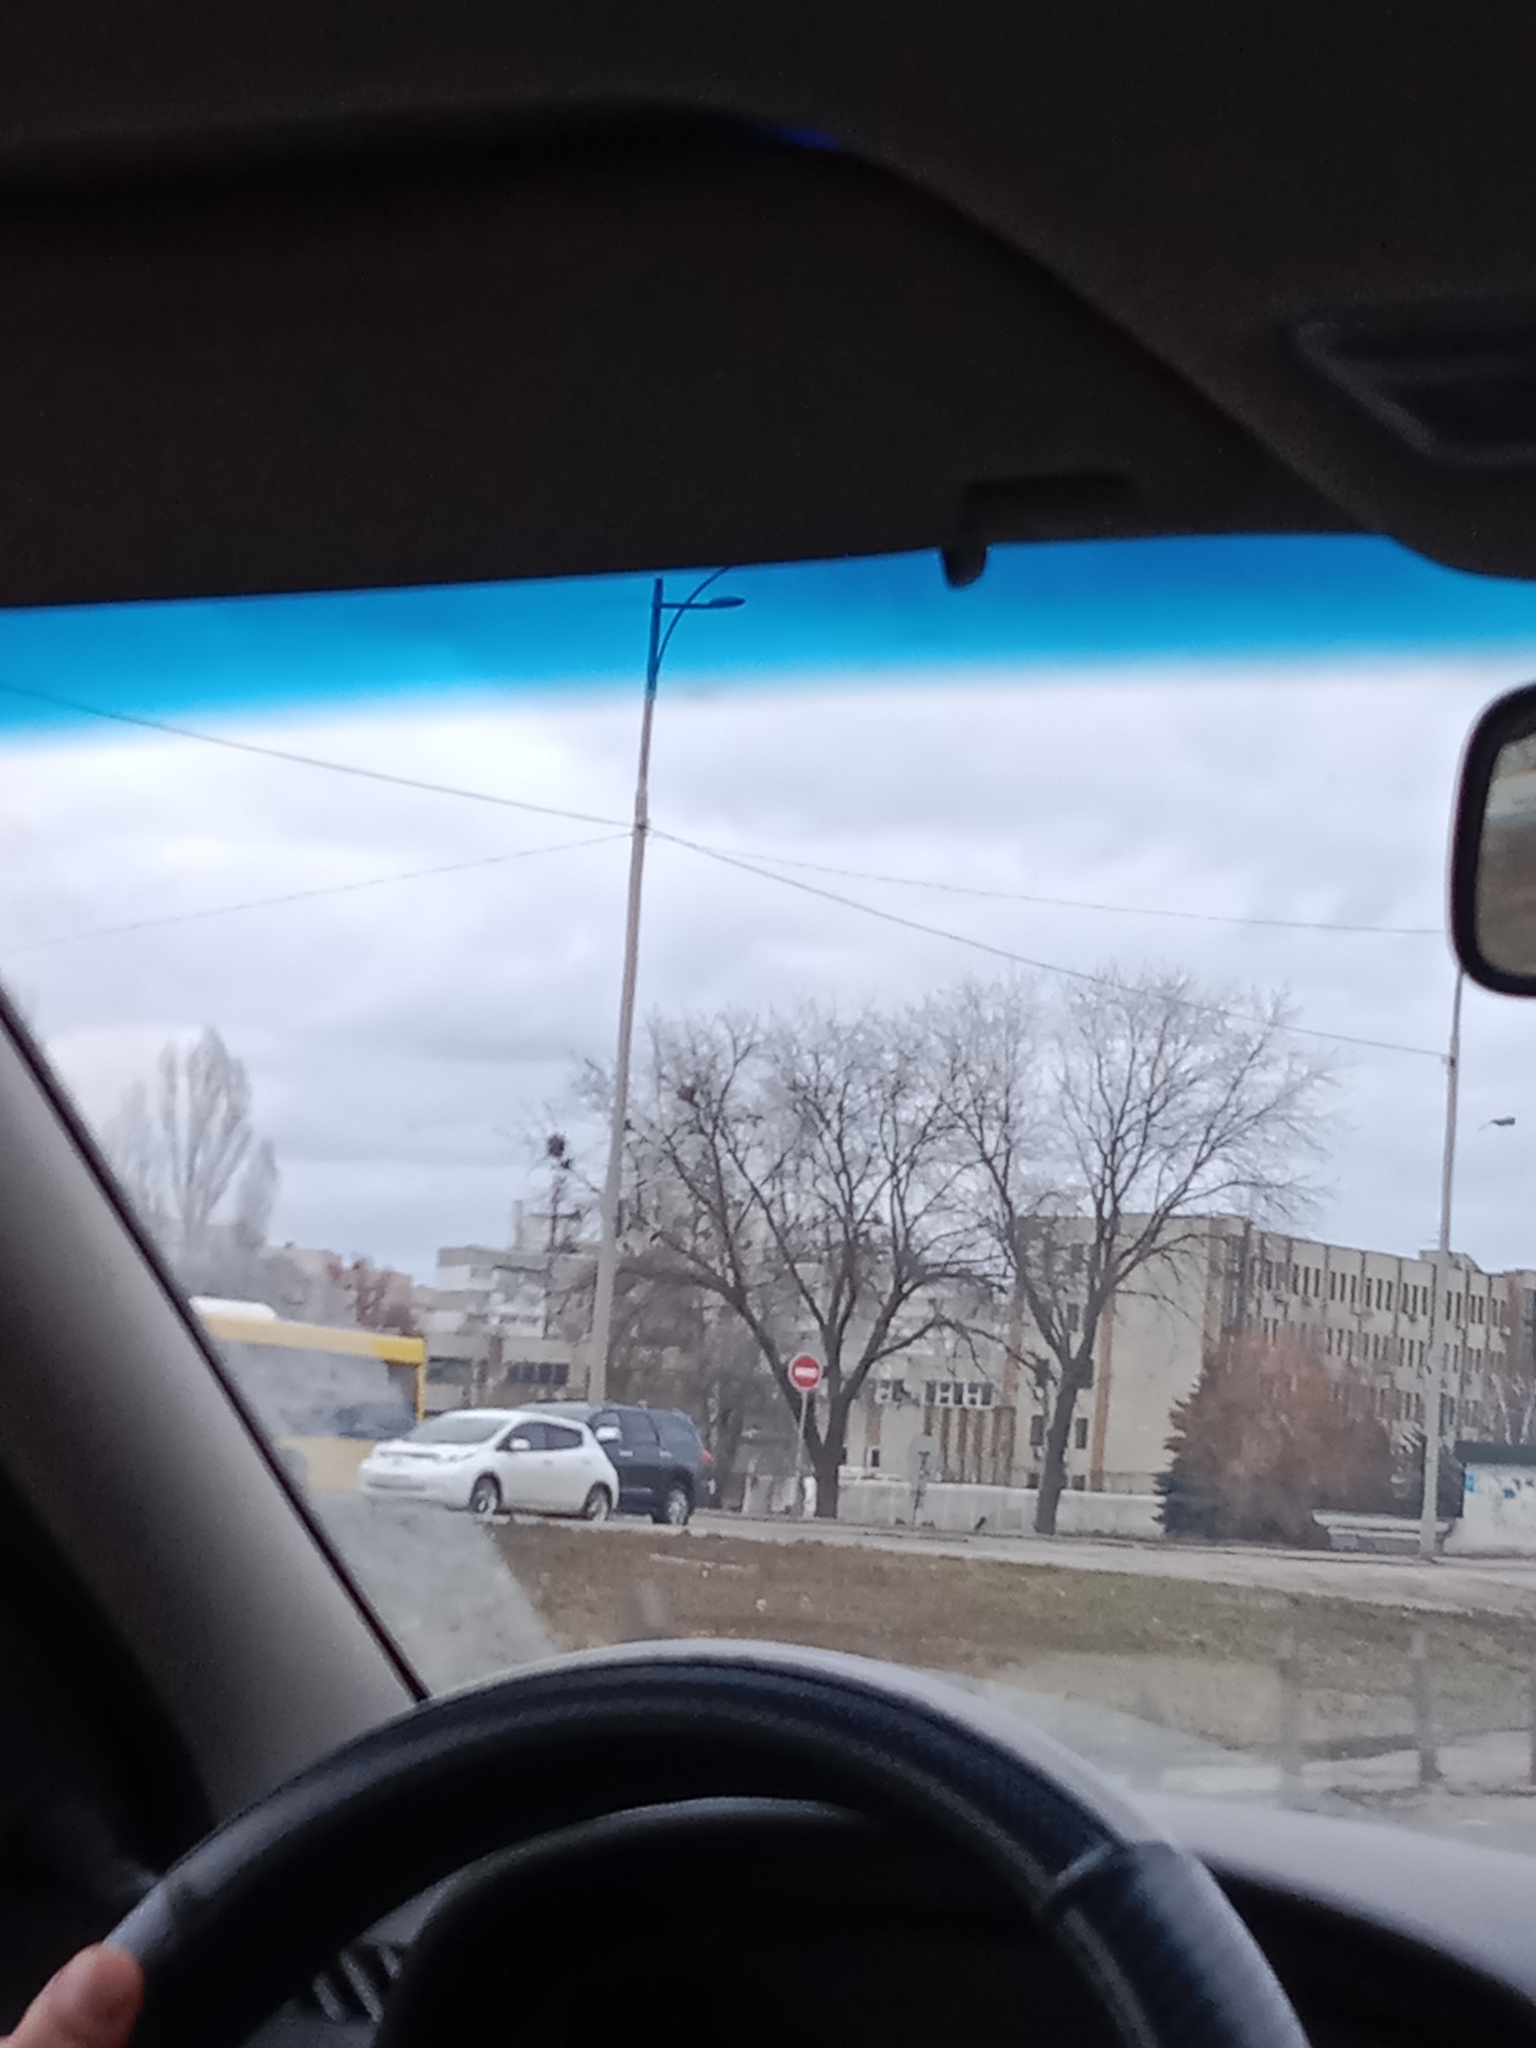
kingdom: Plantae
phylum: Tracheophyta
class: Magnoliopsida
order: Santalales
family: Viscaceae
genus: Viscum
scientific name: Viscum album
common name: Mistletoe
